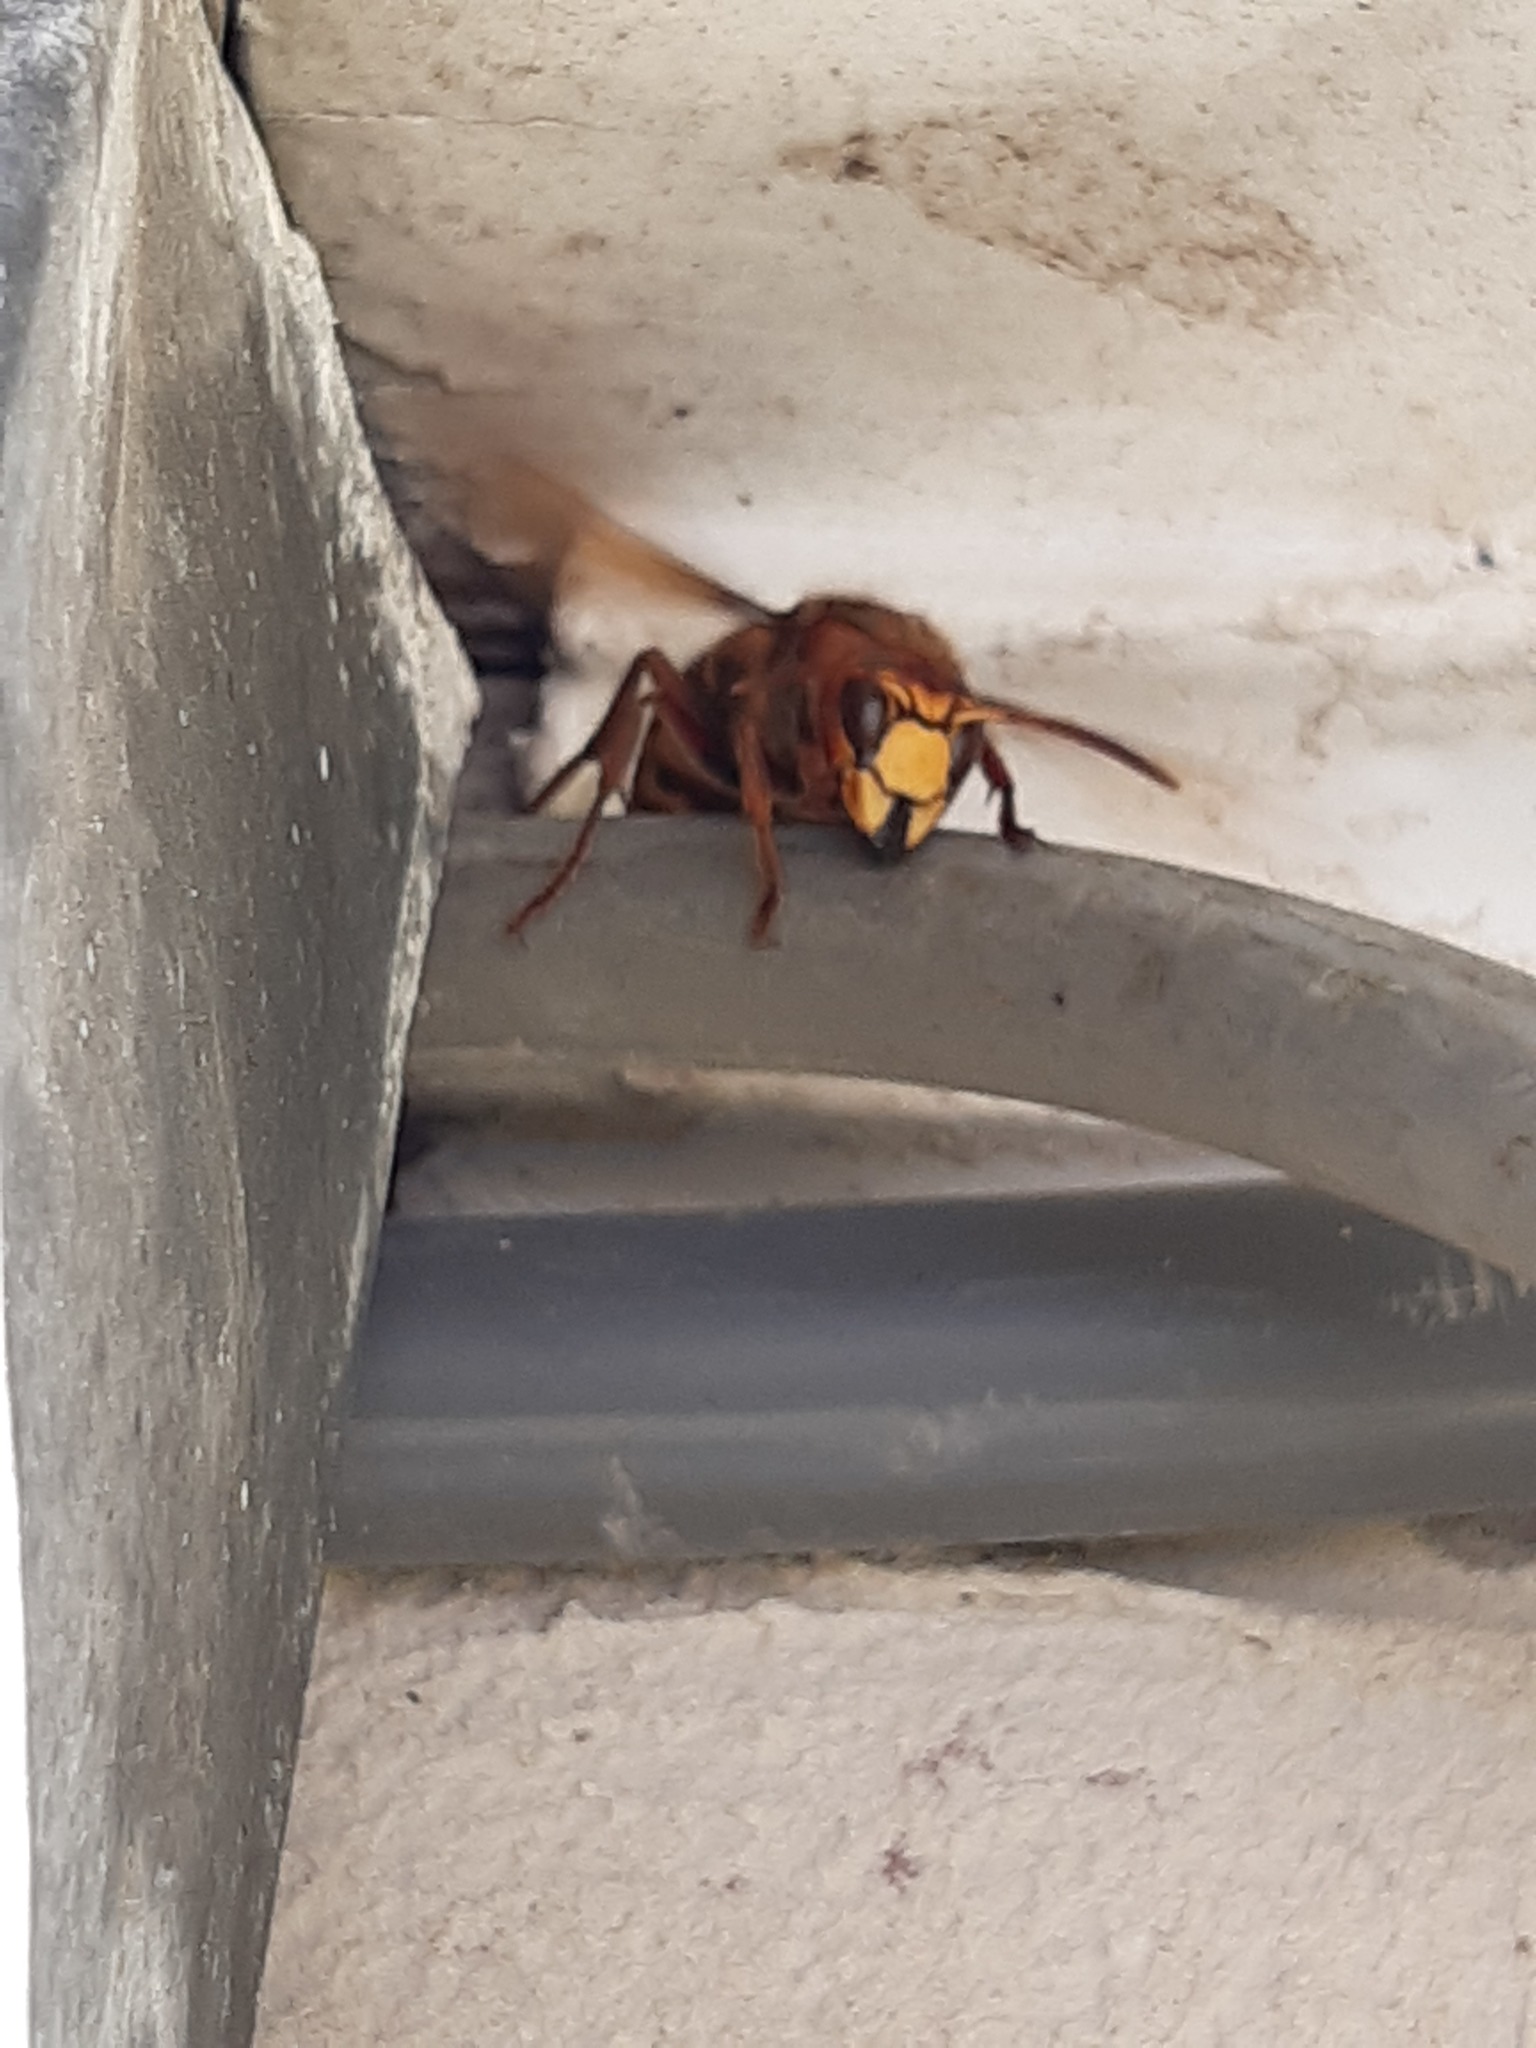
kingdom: Animalia
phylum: Arthropoda
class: Insecta
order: Hymenoptera
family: Vespidae
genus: Vespa
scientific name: Vespa crabro
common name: Hornet
